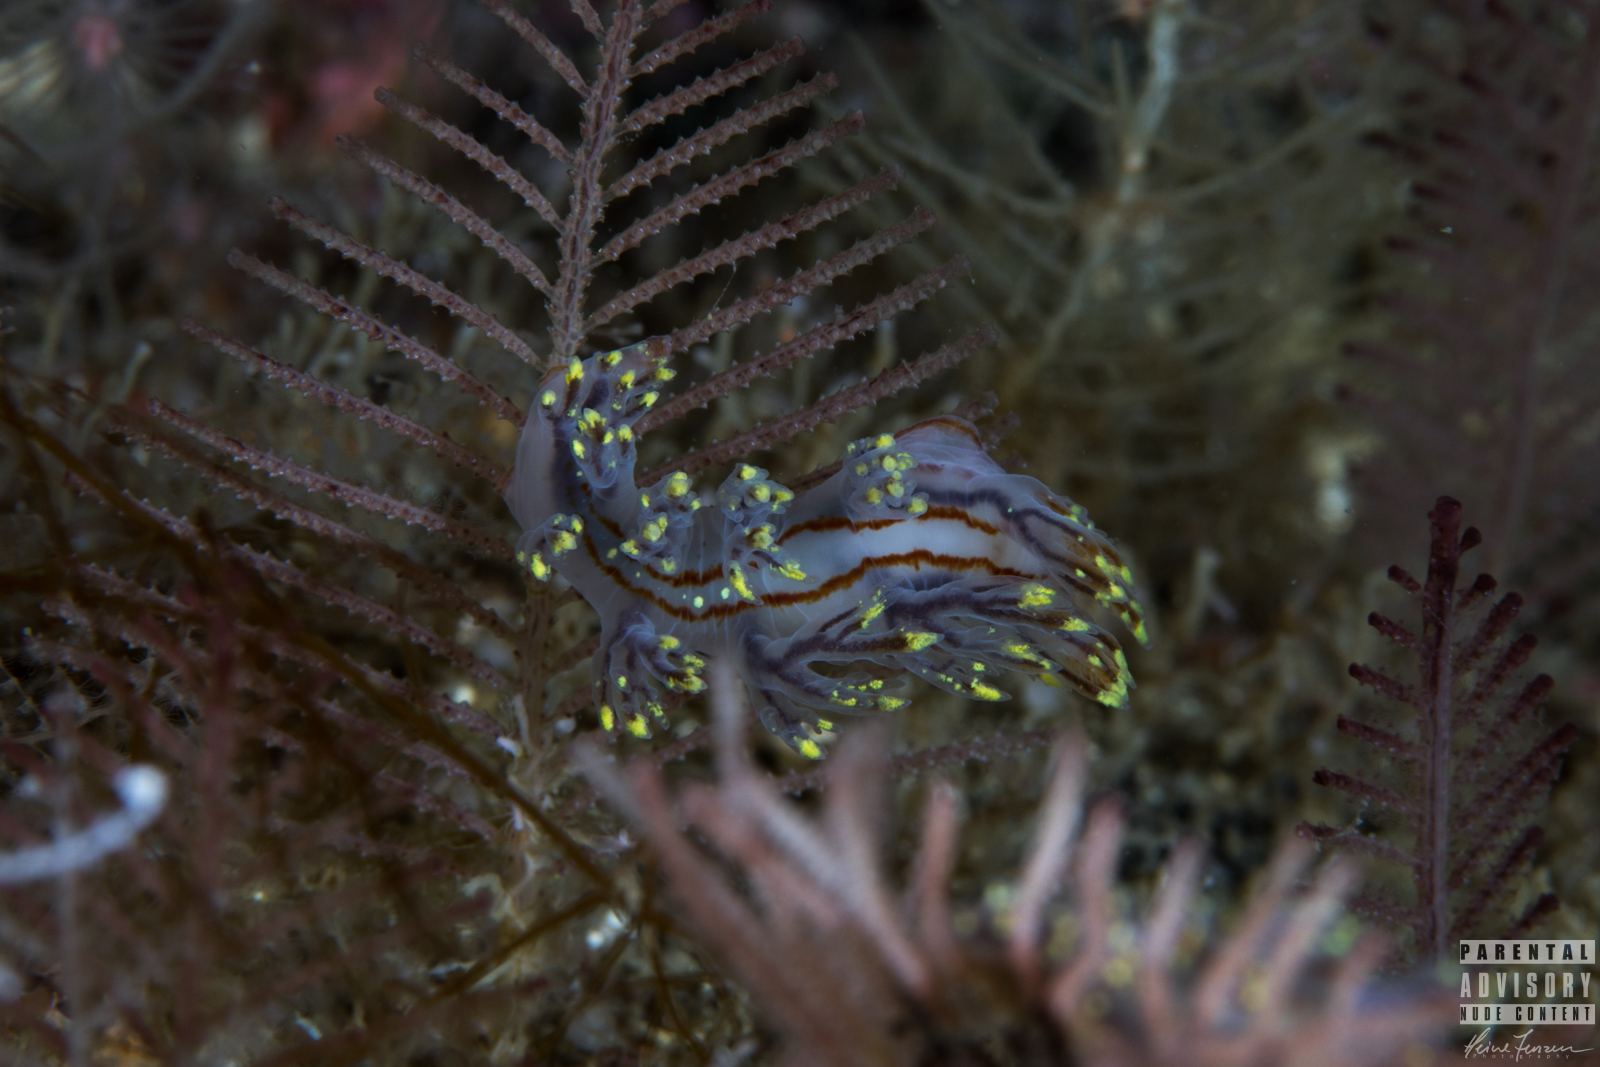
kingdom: Animalia
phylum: Mollusca
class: Gastropoda
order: Nudibranchia
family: Dendronotidae
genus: Dendronotus
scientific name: Dendronotus yrjargul
